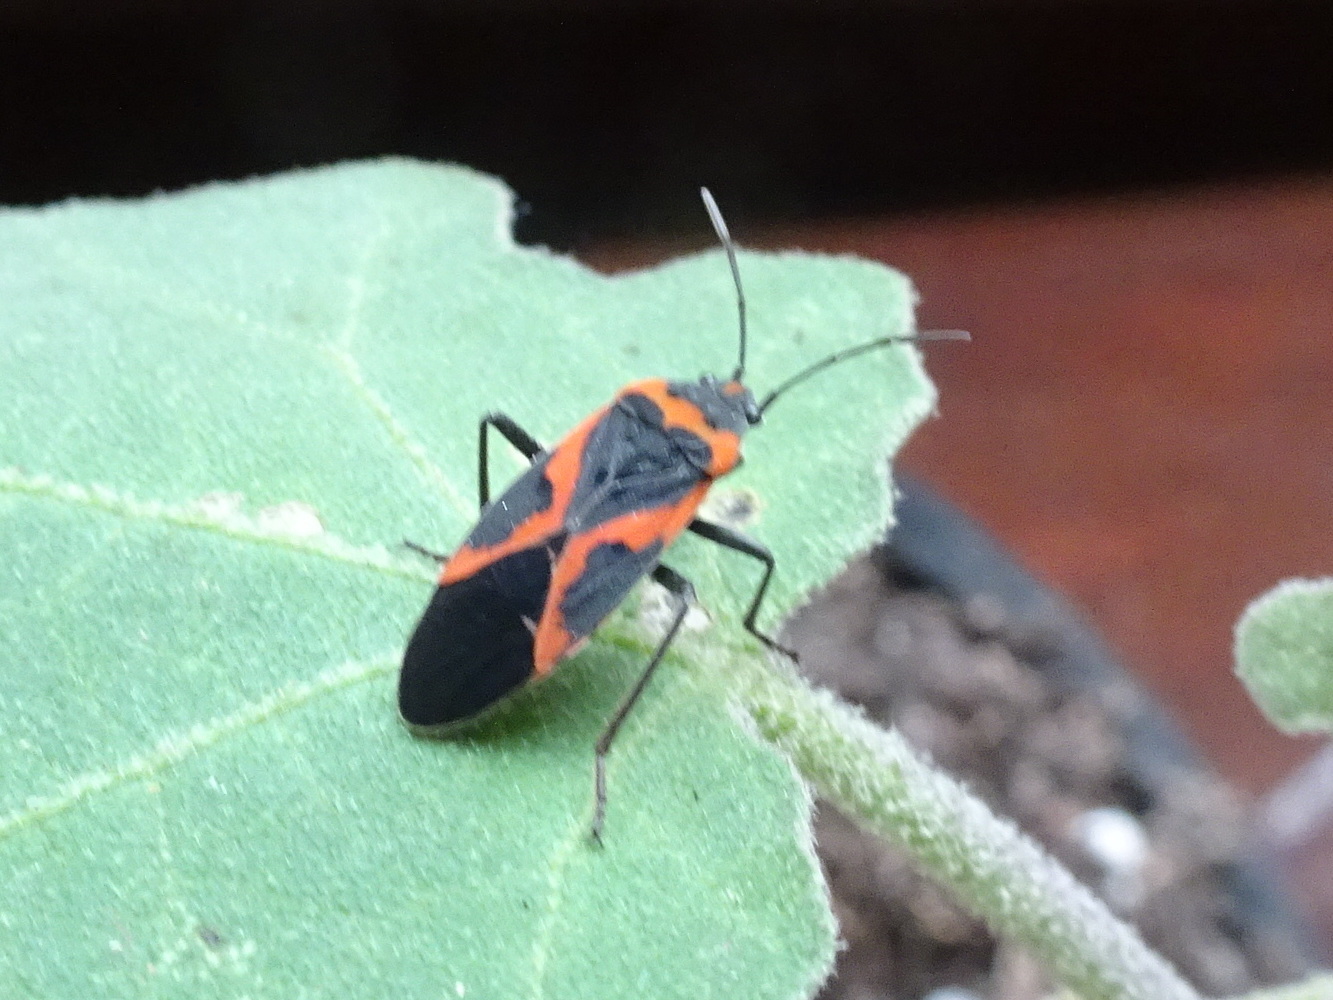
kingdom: Animalia
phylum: Arthropoda
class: Insecta
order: Hemiptera
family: Lygaeidae
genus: Lygaeus
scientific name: Lygaeus kalmii
